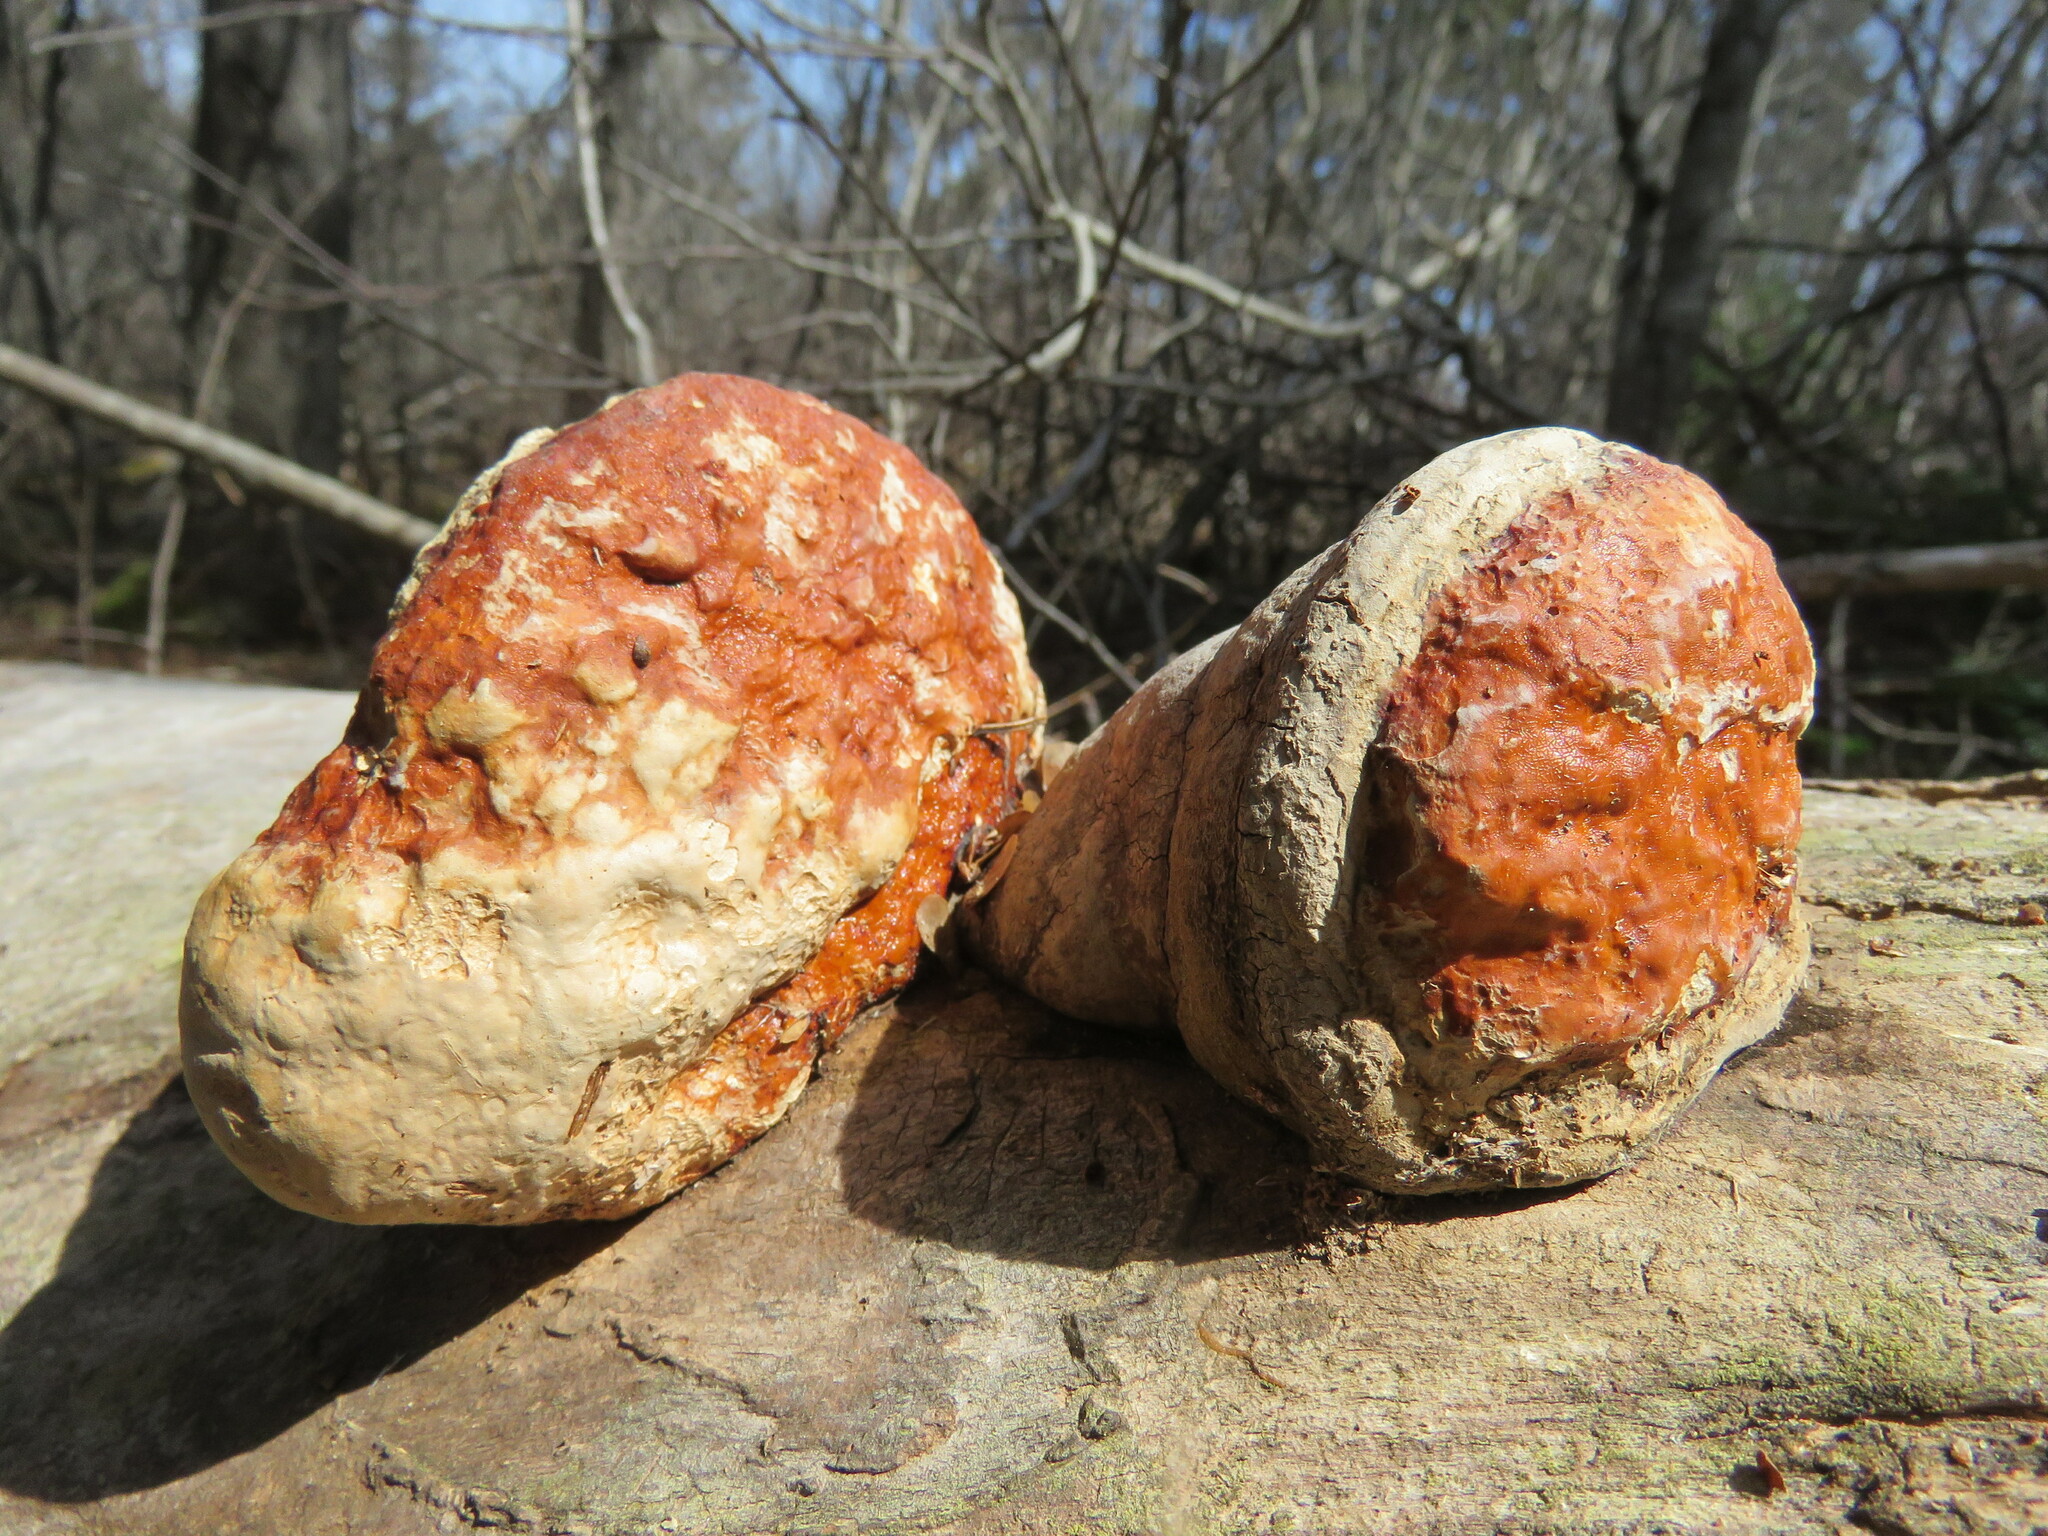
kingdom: Fungi
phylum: Basidiomycota
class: Agaricomycetes
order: Polyporales
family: Fomitopsidaceae
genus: Fomitopsis
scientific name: Fomitopsis mounceae
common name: Northern red belt
